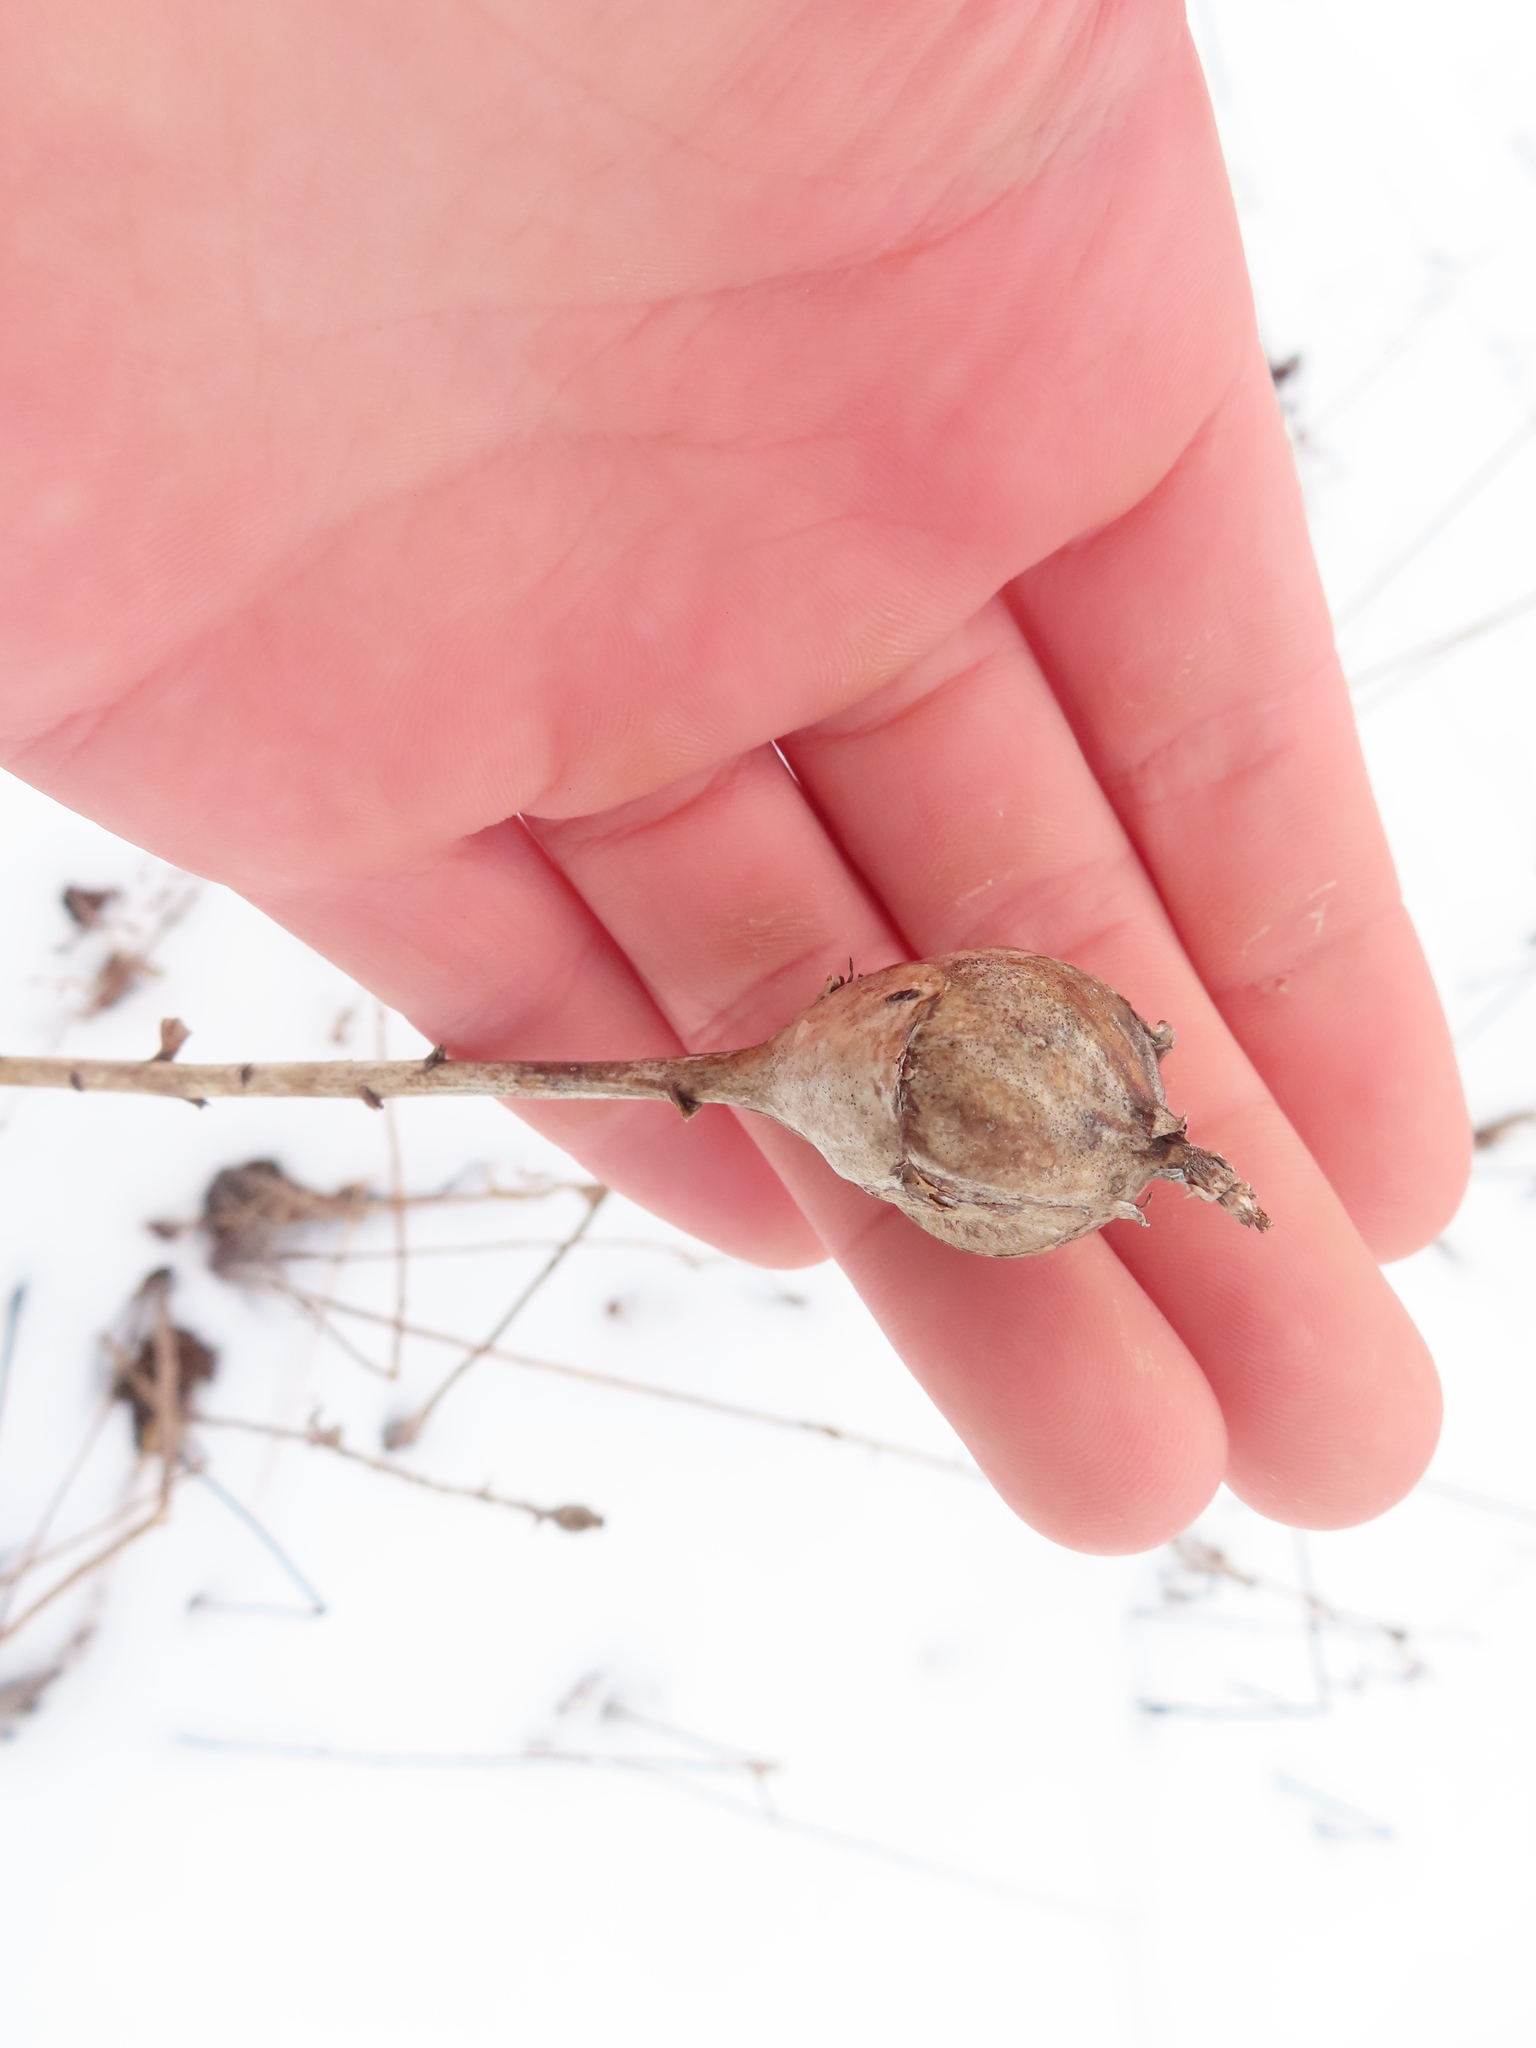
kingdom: Animalia
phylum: Arthropoda
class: Insecta
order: Diptera
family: Tephritidae
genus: Eurosta
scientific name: Eurosta solidaginis
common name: Goldenrod gall fly
